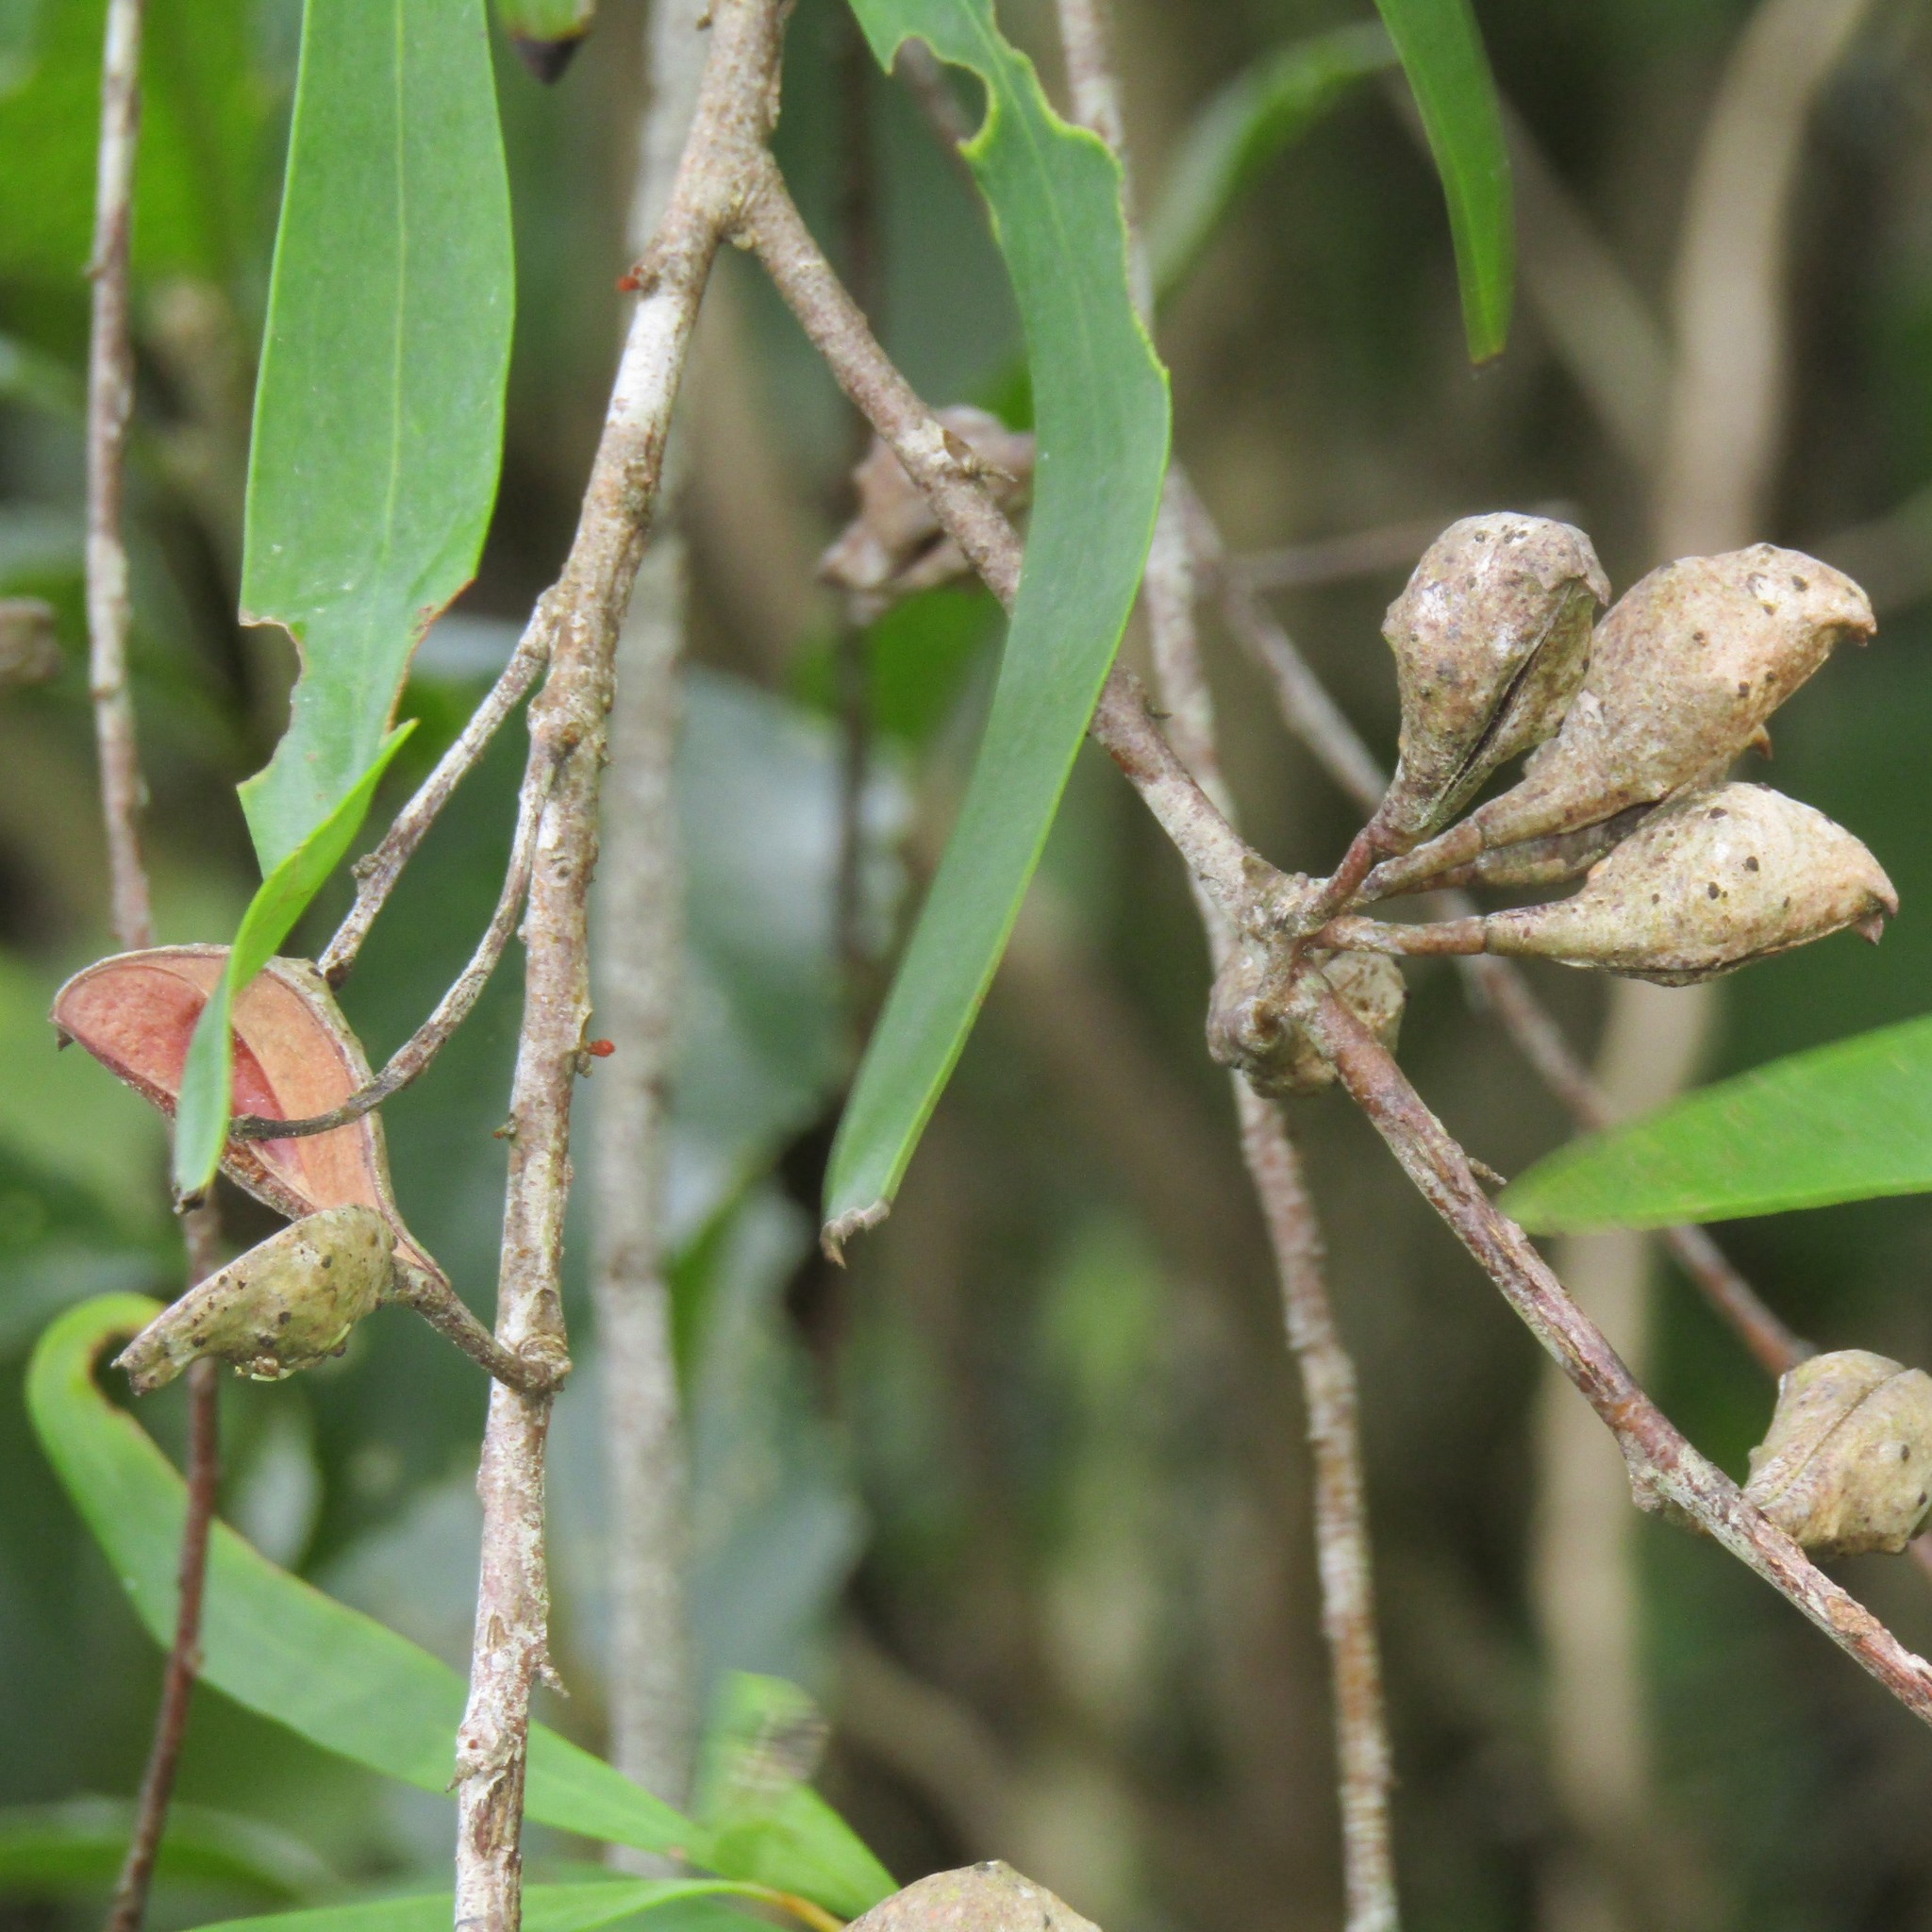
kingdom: Plantae
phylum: Tracheophyta
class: Magnoliopsida
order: Proteales
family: Proteaceae
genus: Hakea
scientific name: Hakea salicifolia
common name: Willow hakea
